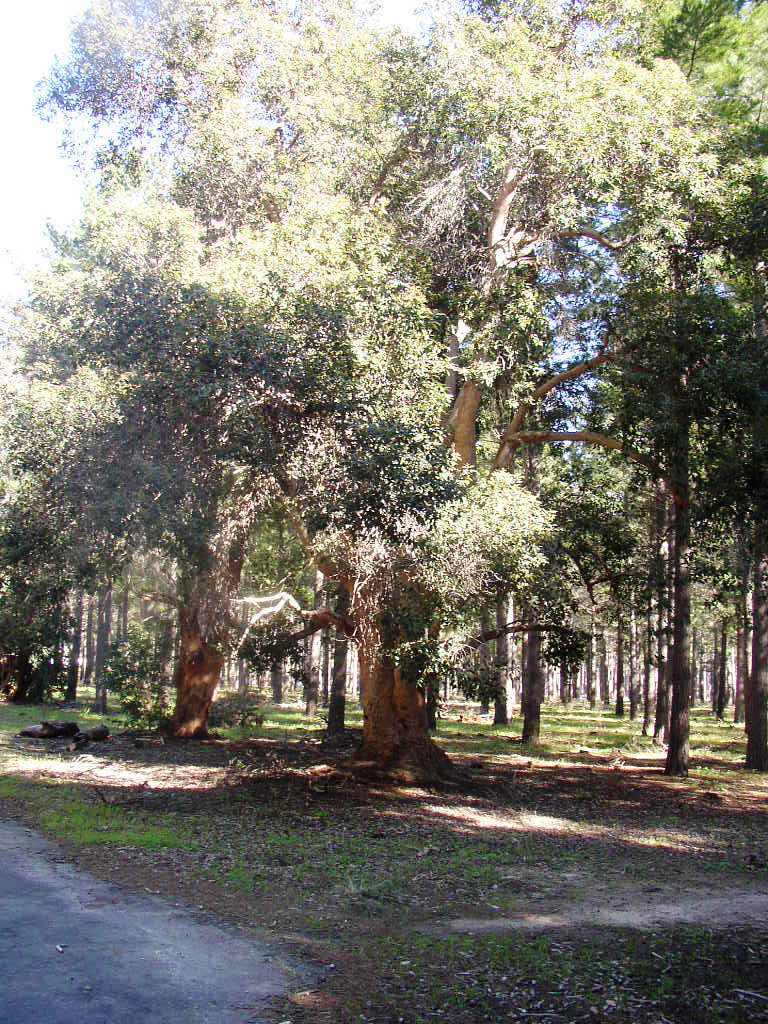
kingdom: Plantae
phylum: Tracheophyta
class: Magnoliopsida
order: Myrtales
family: Myrtaceae
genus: Corymbia
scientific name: Corymbia ficifolia
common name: Redflower gum
